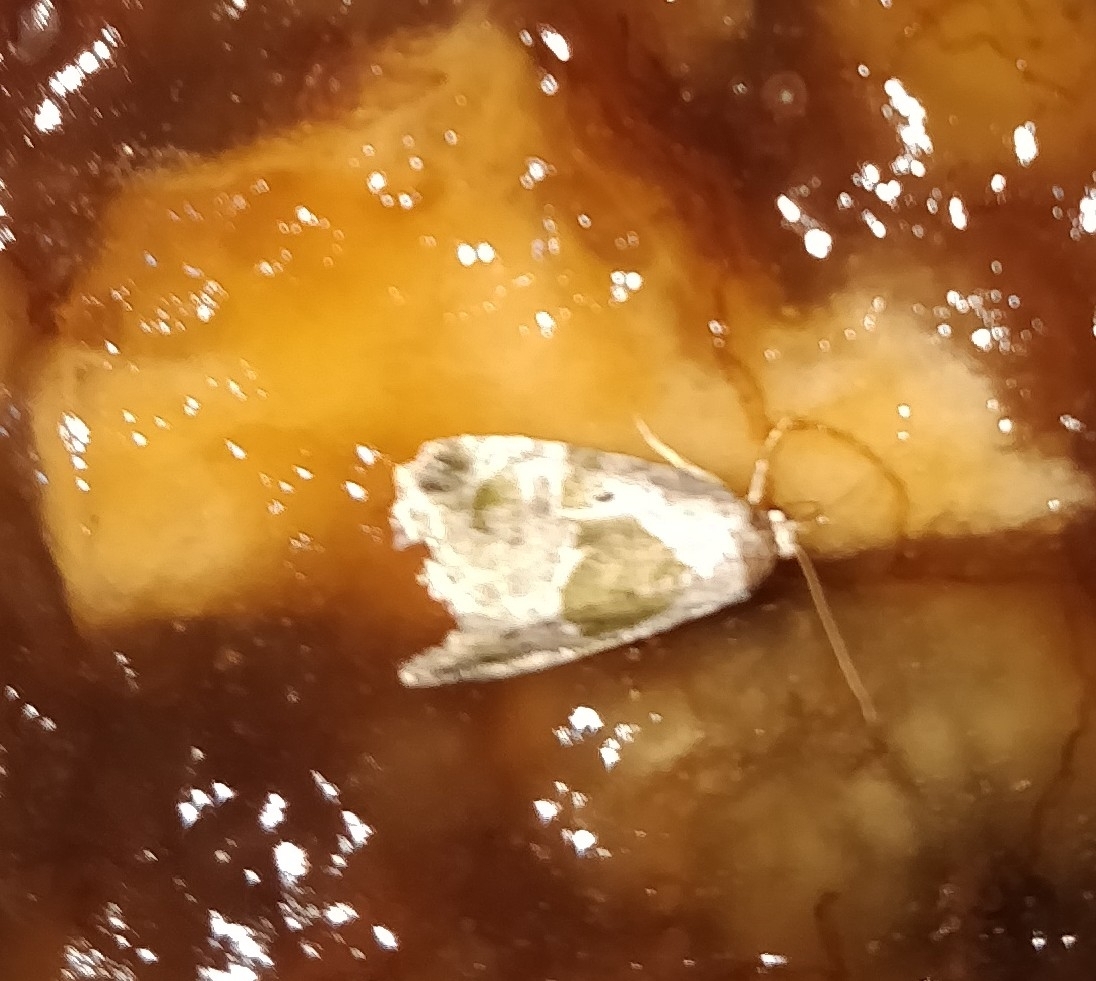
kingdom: Animalia
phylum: Arthropoda
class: Insecta
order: Lepidoptera
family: Noctuidae
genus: Maliattha
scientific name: Maliattha synochitis
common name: Black-dotted glyph
